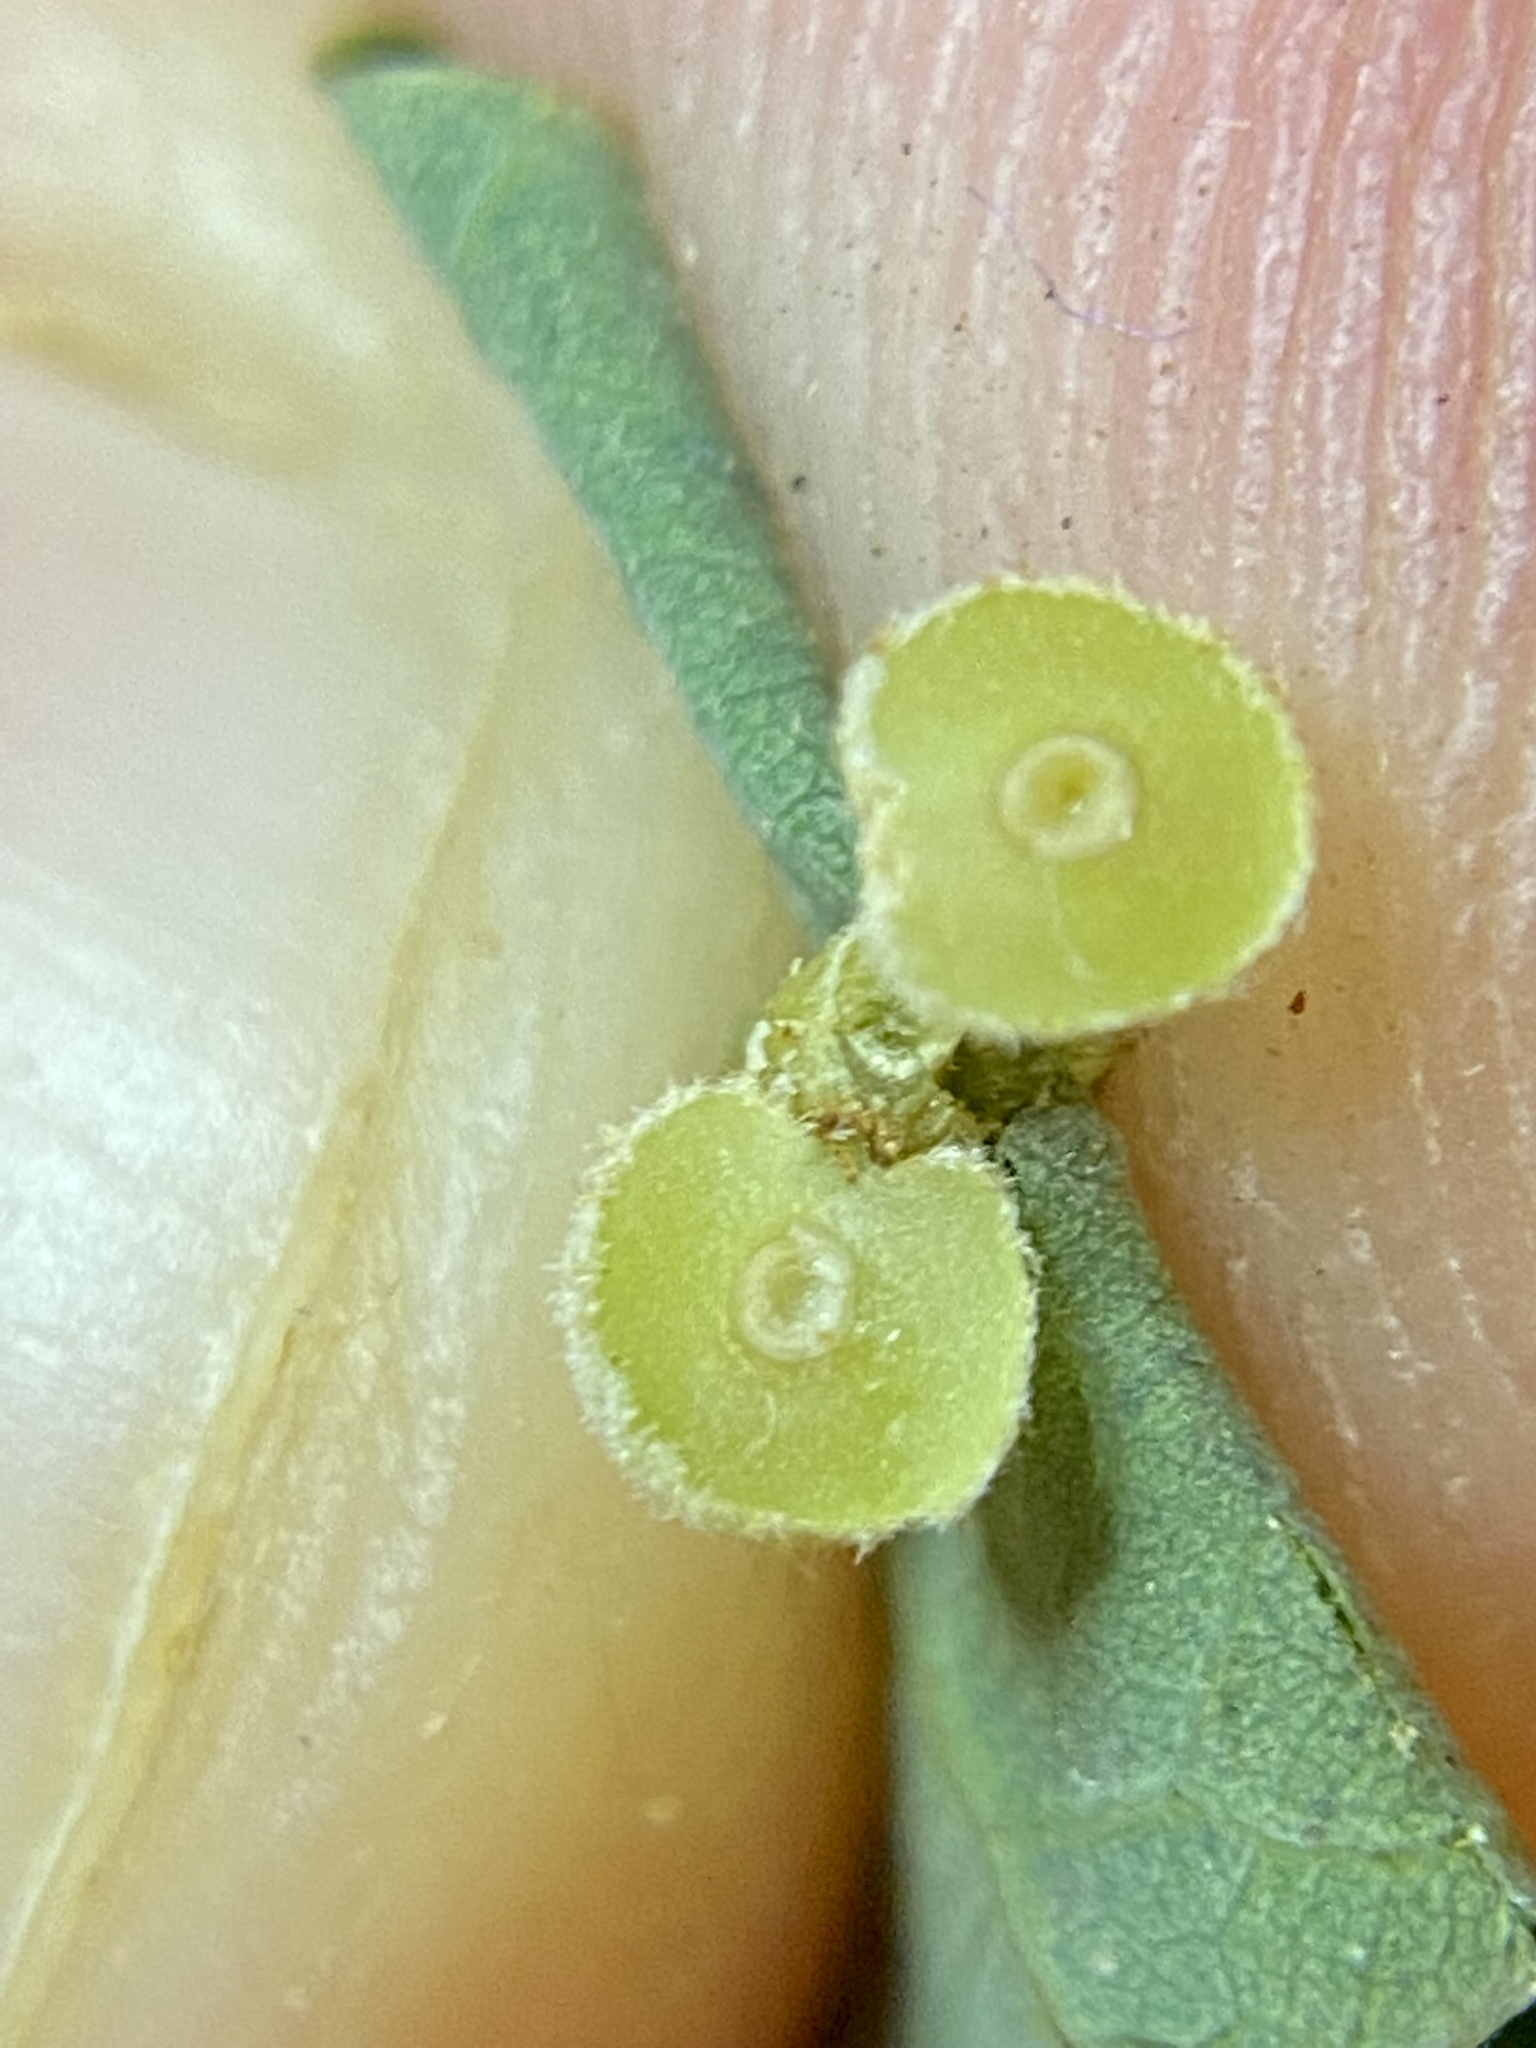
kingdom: Animalia
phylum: Arthropoda
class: Insecta
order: Diptera
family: Cecidomyiidae
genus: Caryomyia
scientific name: Caryomyia spherica
